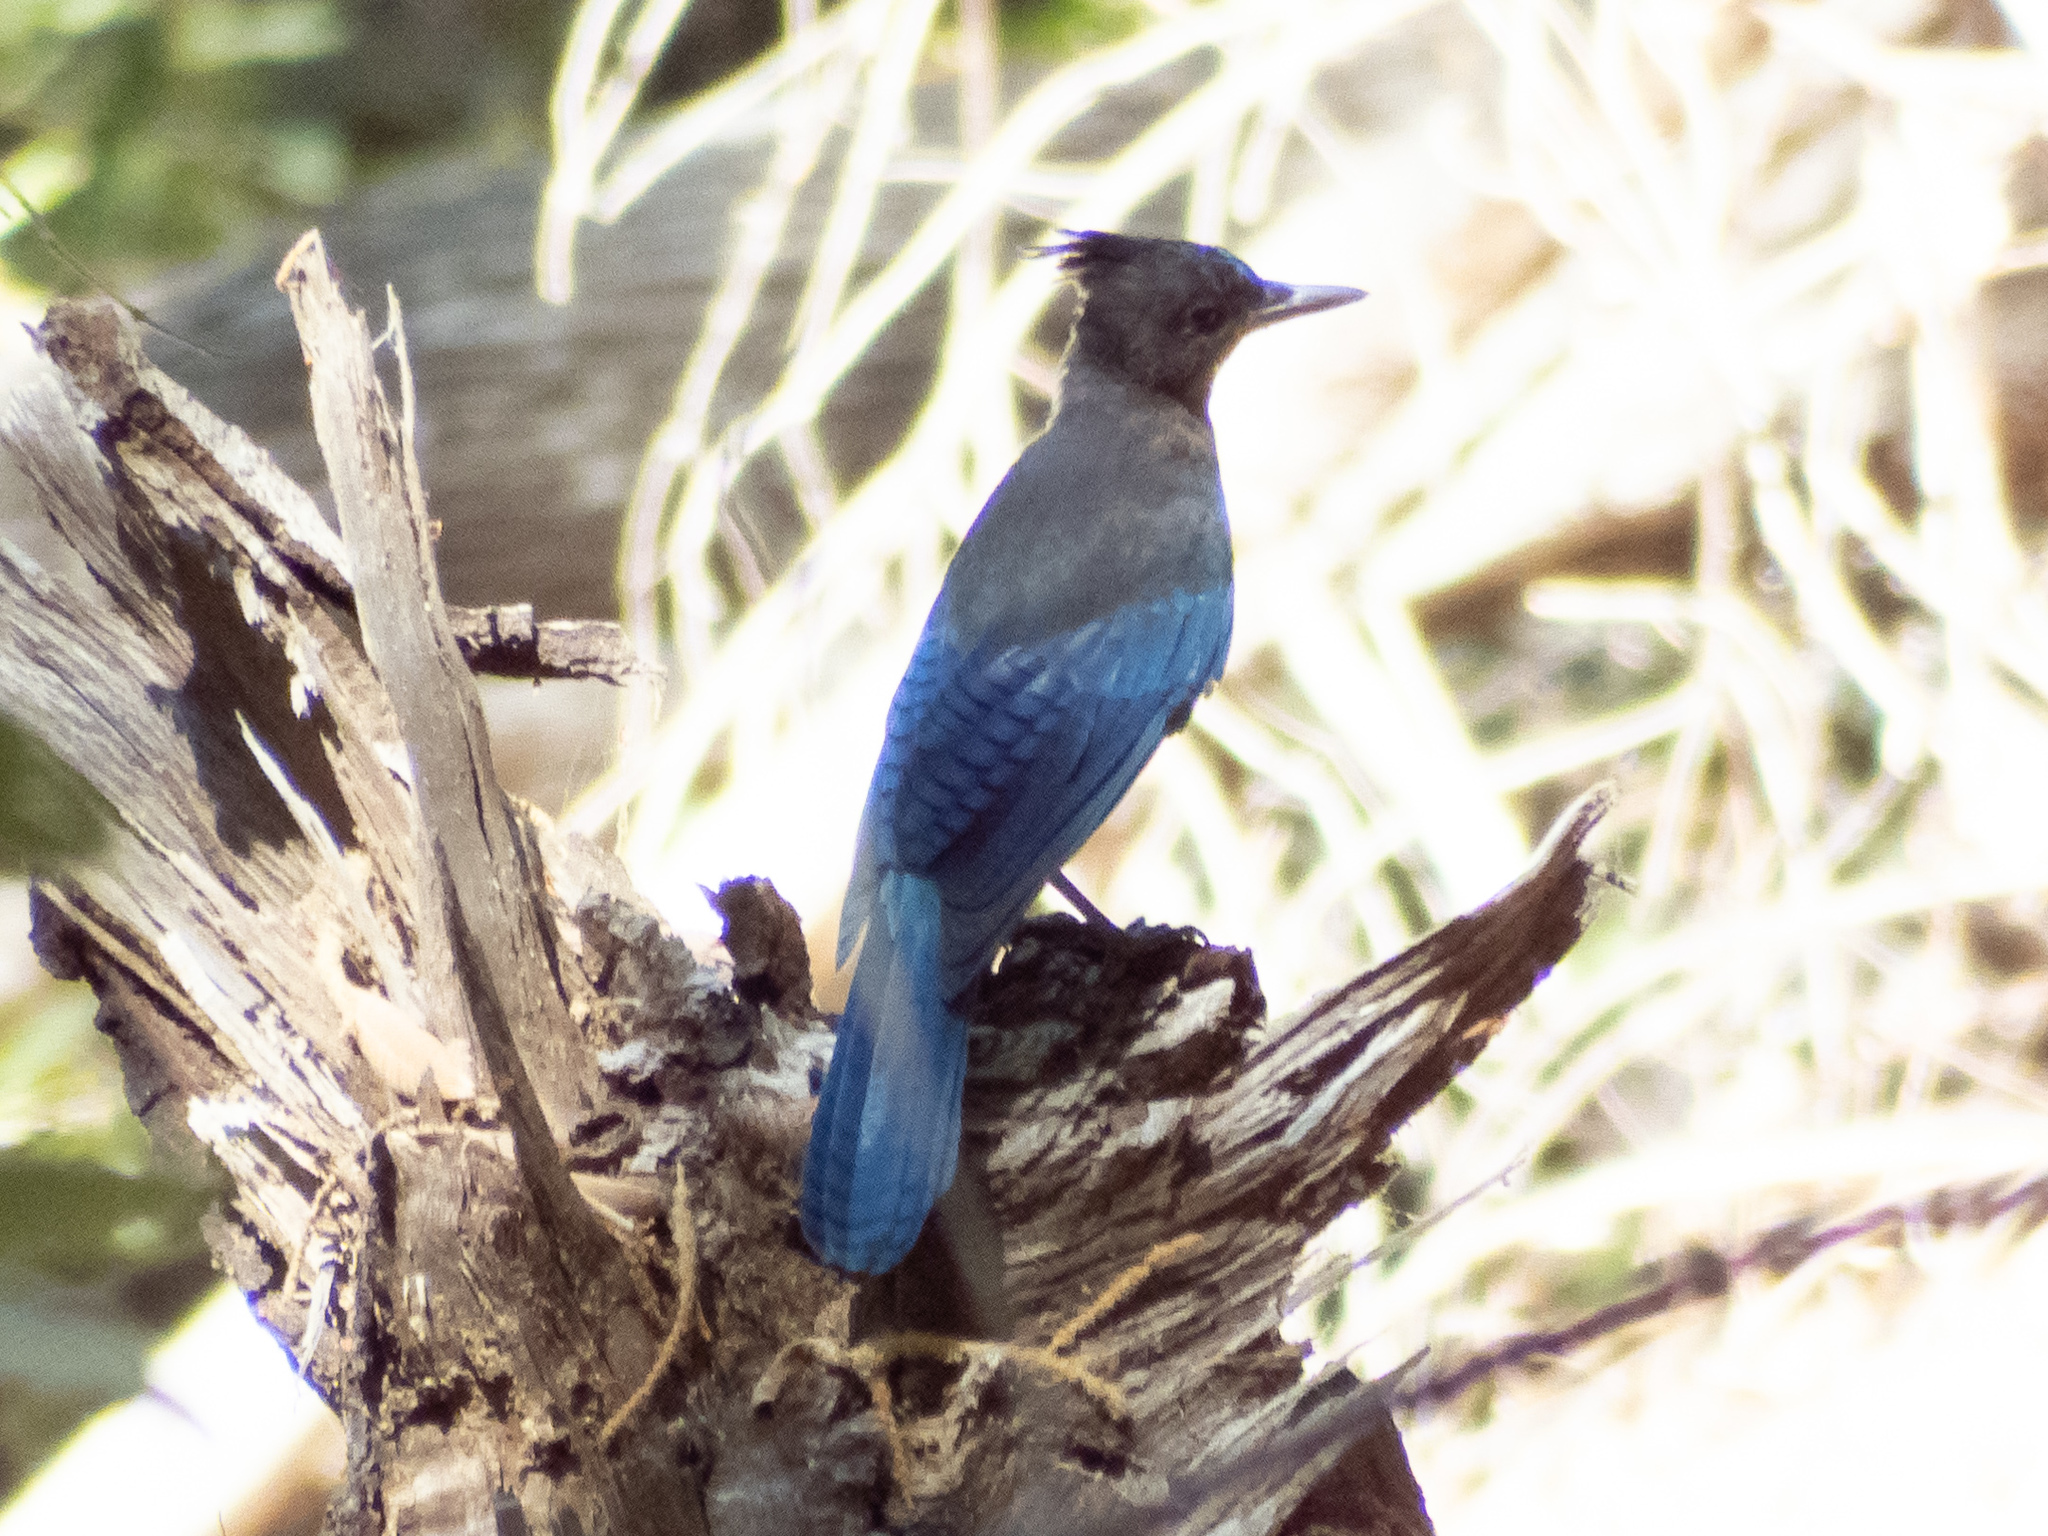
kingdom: Animalia
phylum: Chordata
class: Aves
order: Passeriformes
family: Corvidae
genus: Cyanocitta
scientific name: Cyanocitta stelleri
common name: Steller's jay
